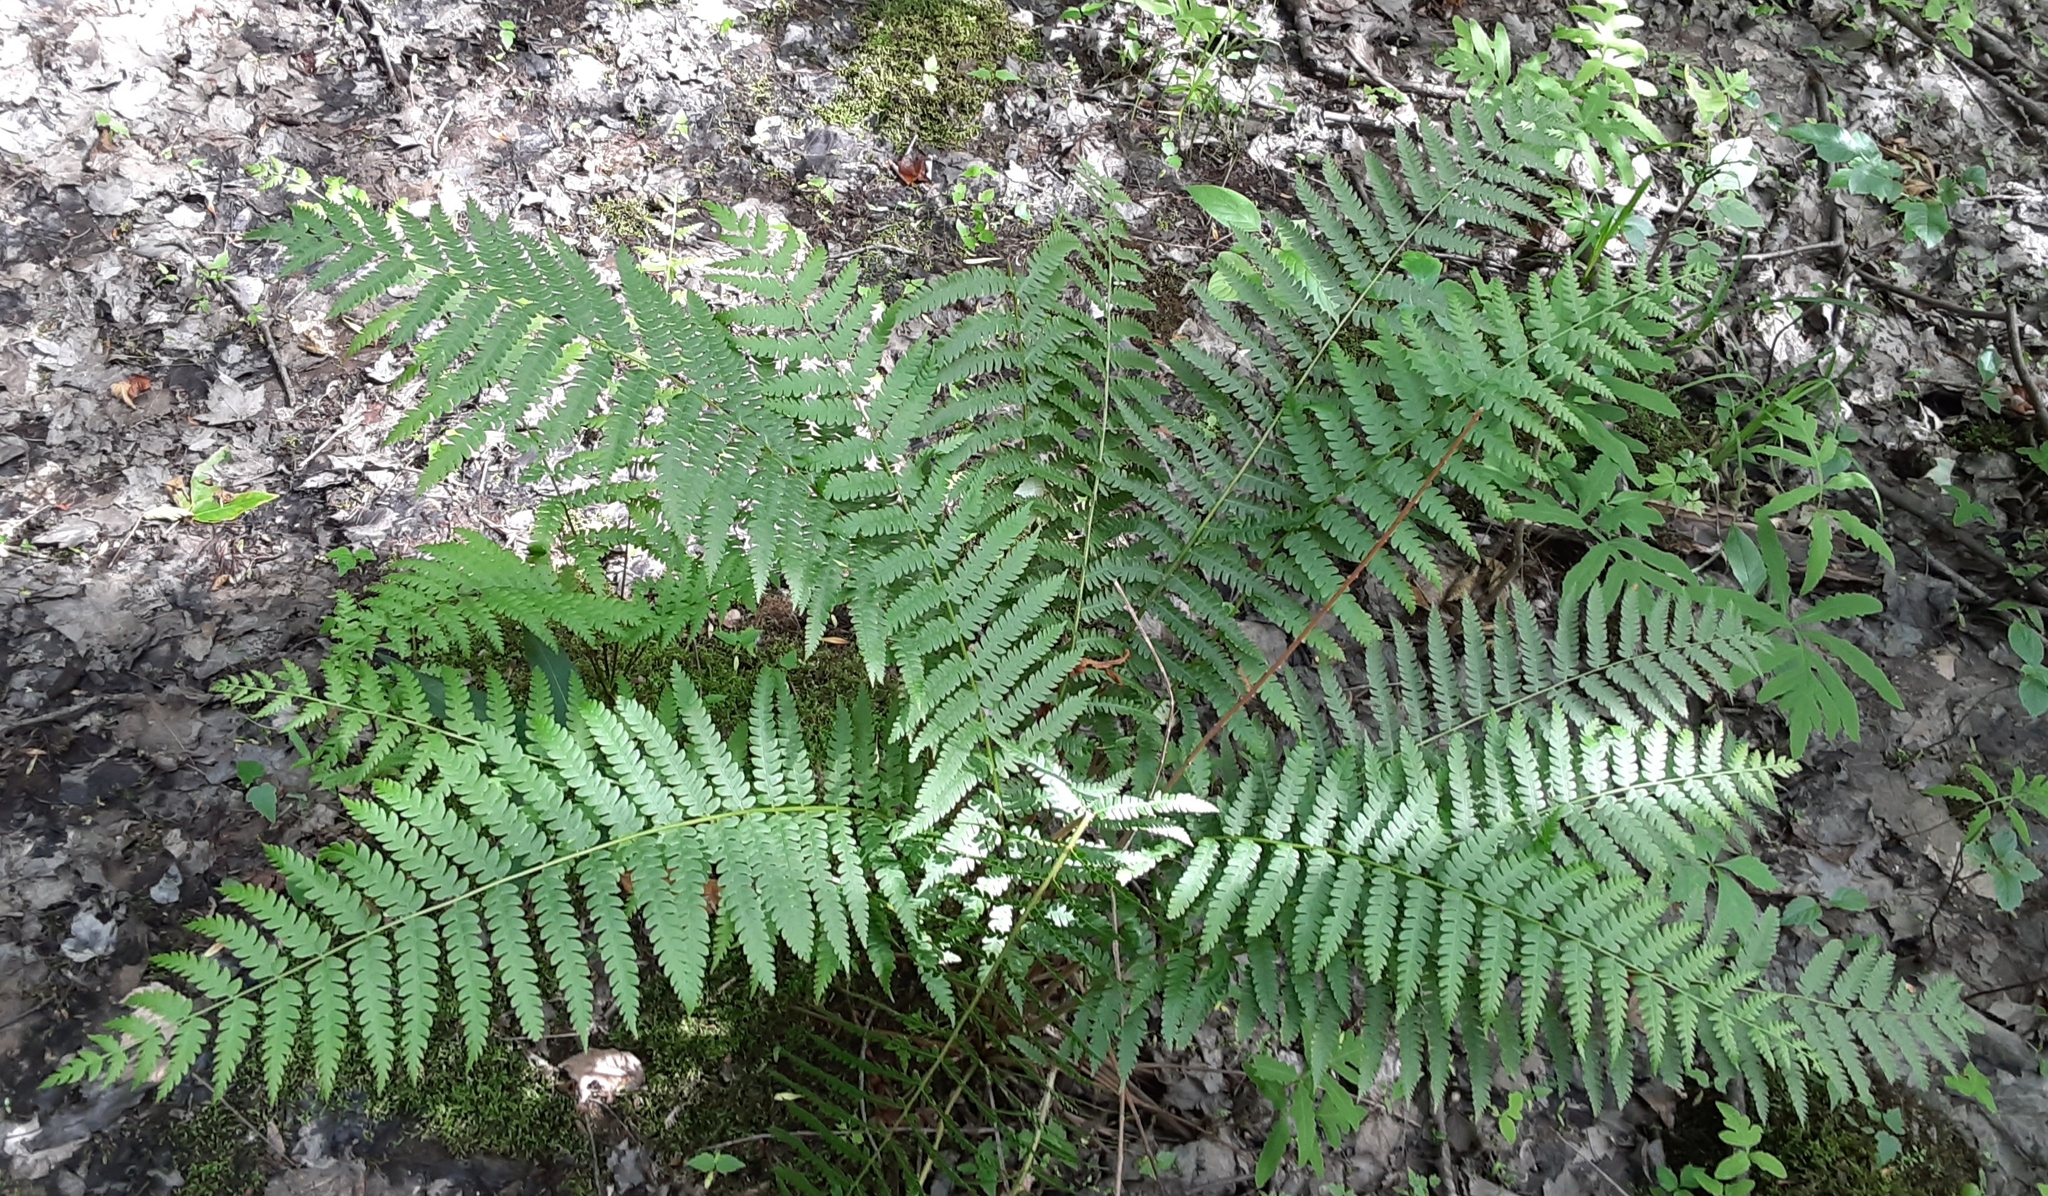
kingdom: Plantae
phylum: Tracheophyta
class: Polypodiopsida
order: Osmundales
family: Osmundaceae
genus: Osmundastrum
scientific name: Osmundastrum cinnamomeum
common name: Cinnamon fern
